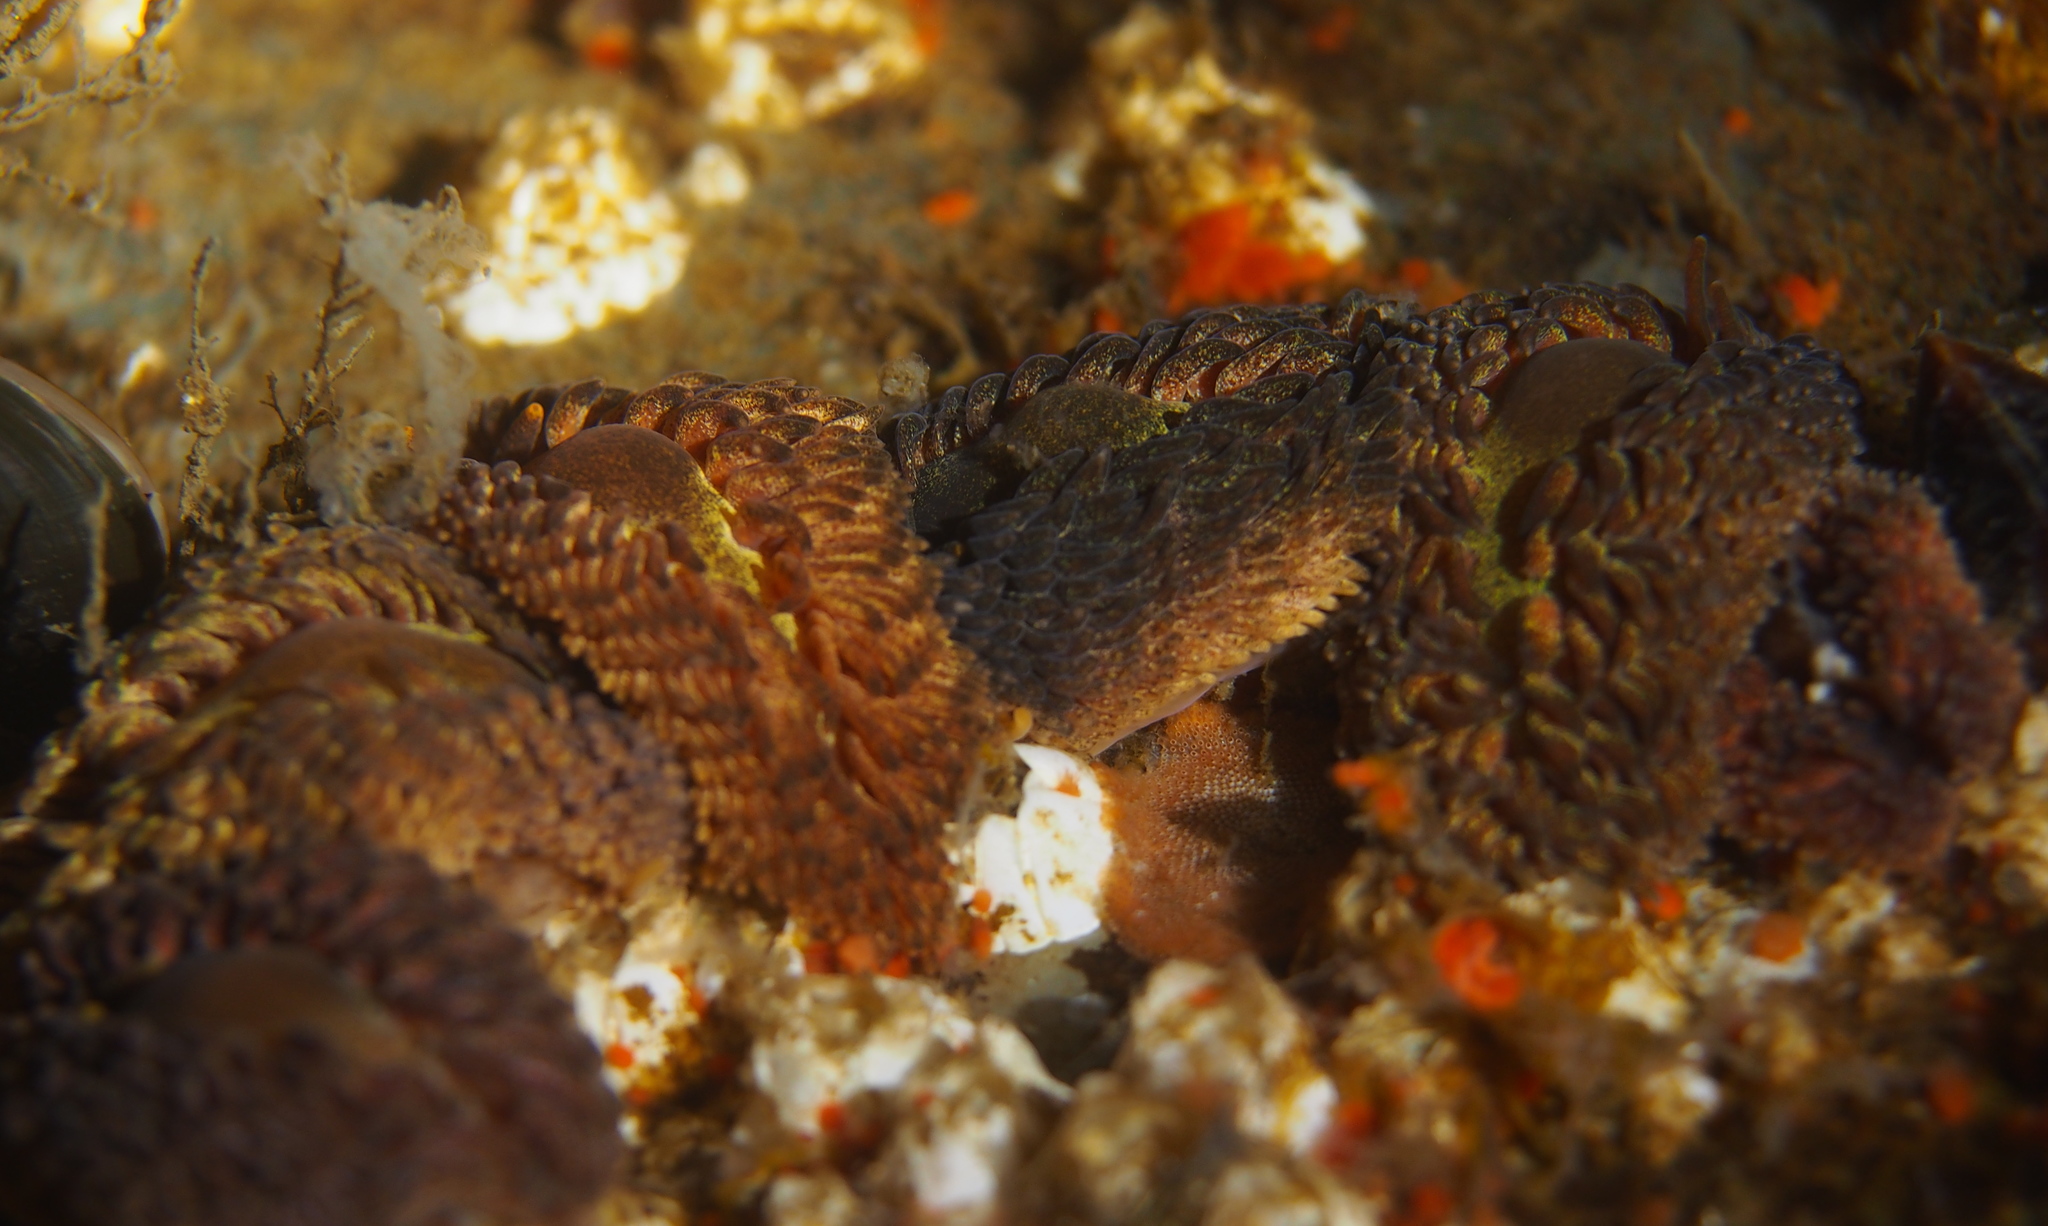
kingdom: Animalia
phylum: Mollusca
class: Gastropoda
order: Nudibranchia
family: Aeolidiidae
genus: Aeolidia
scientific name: Aeolidia papillosa
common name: Common grey sea slug
